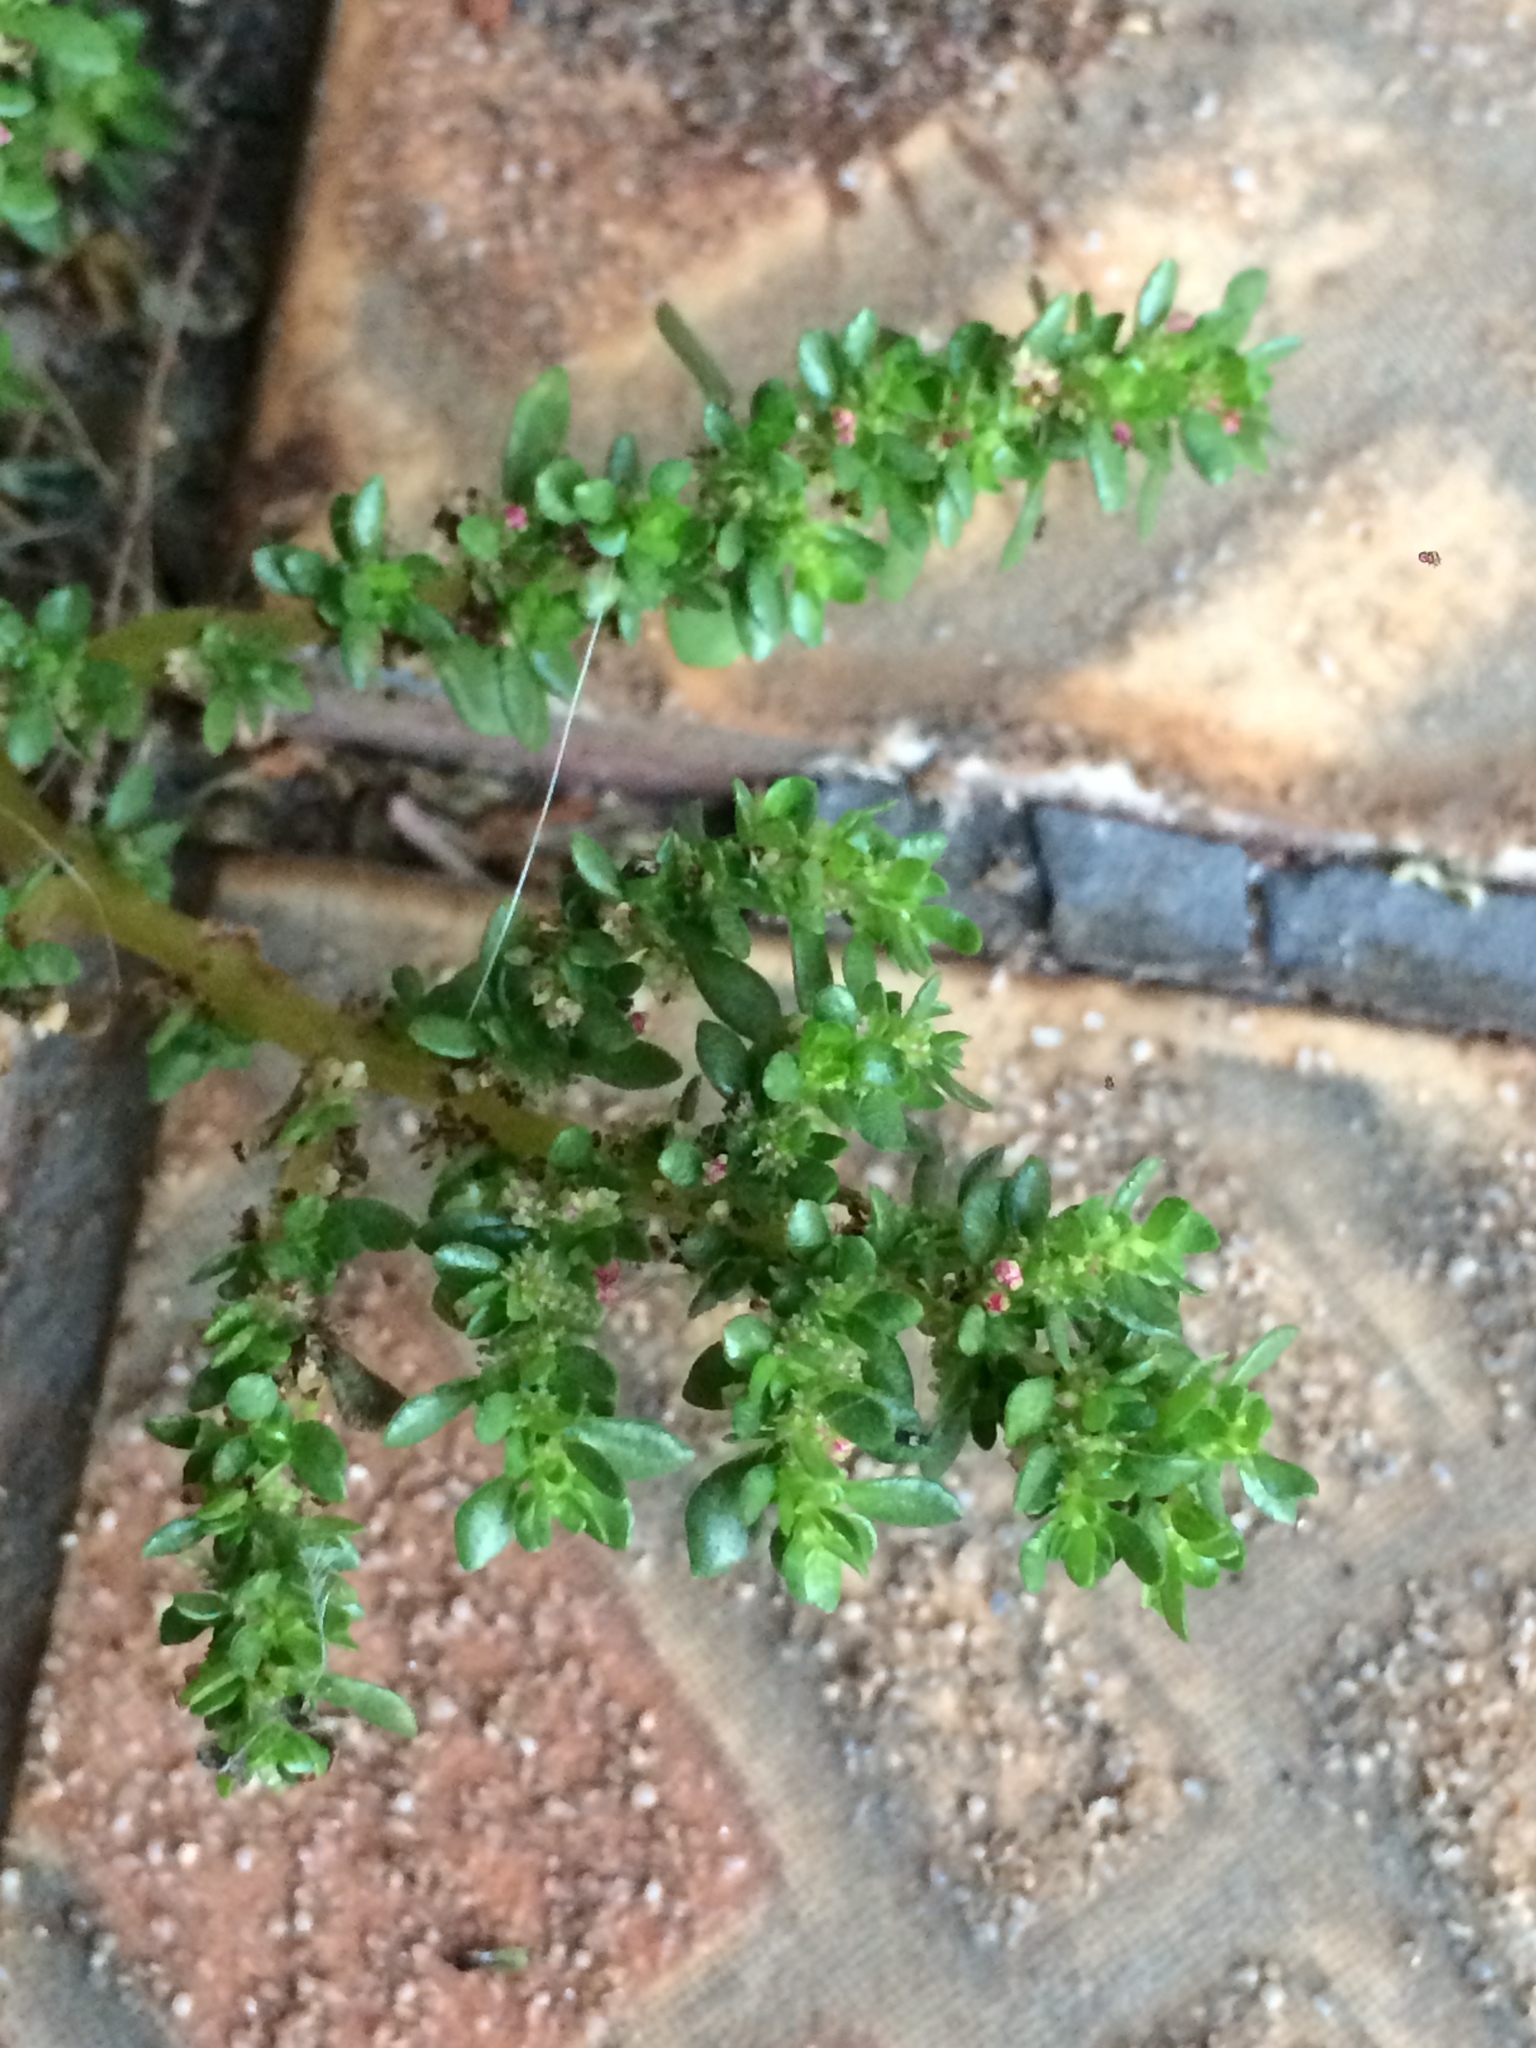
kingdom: Plantae
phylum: Tracheophyta
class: Magnoliopsida
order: Rosales
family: Urticaceae
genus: Pilea
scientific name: Pilea microphylla
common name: Artillery-plant
